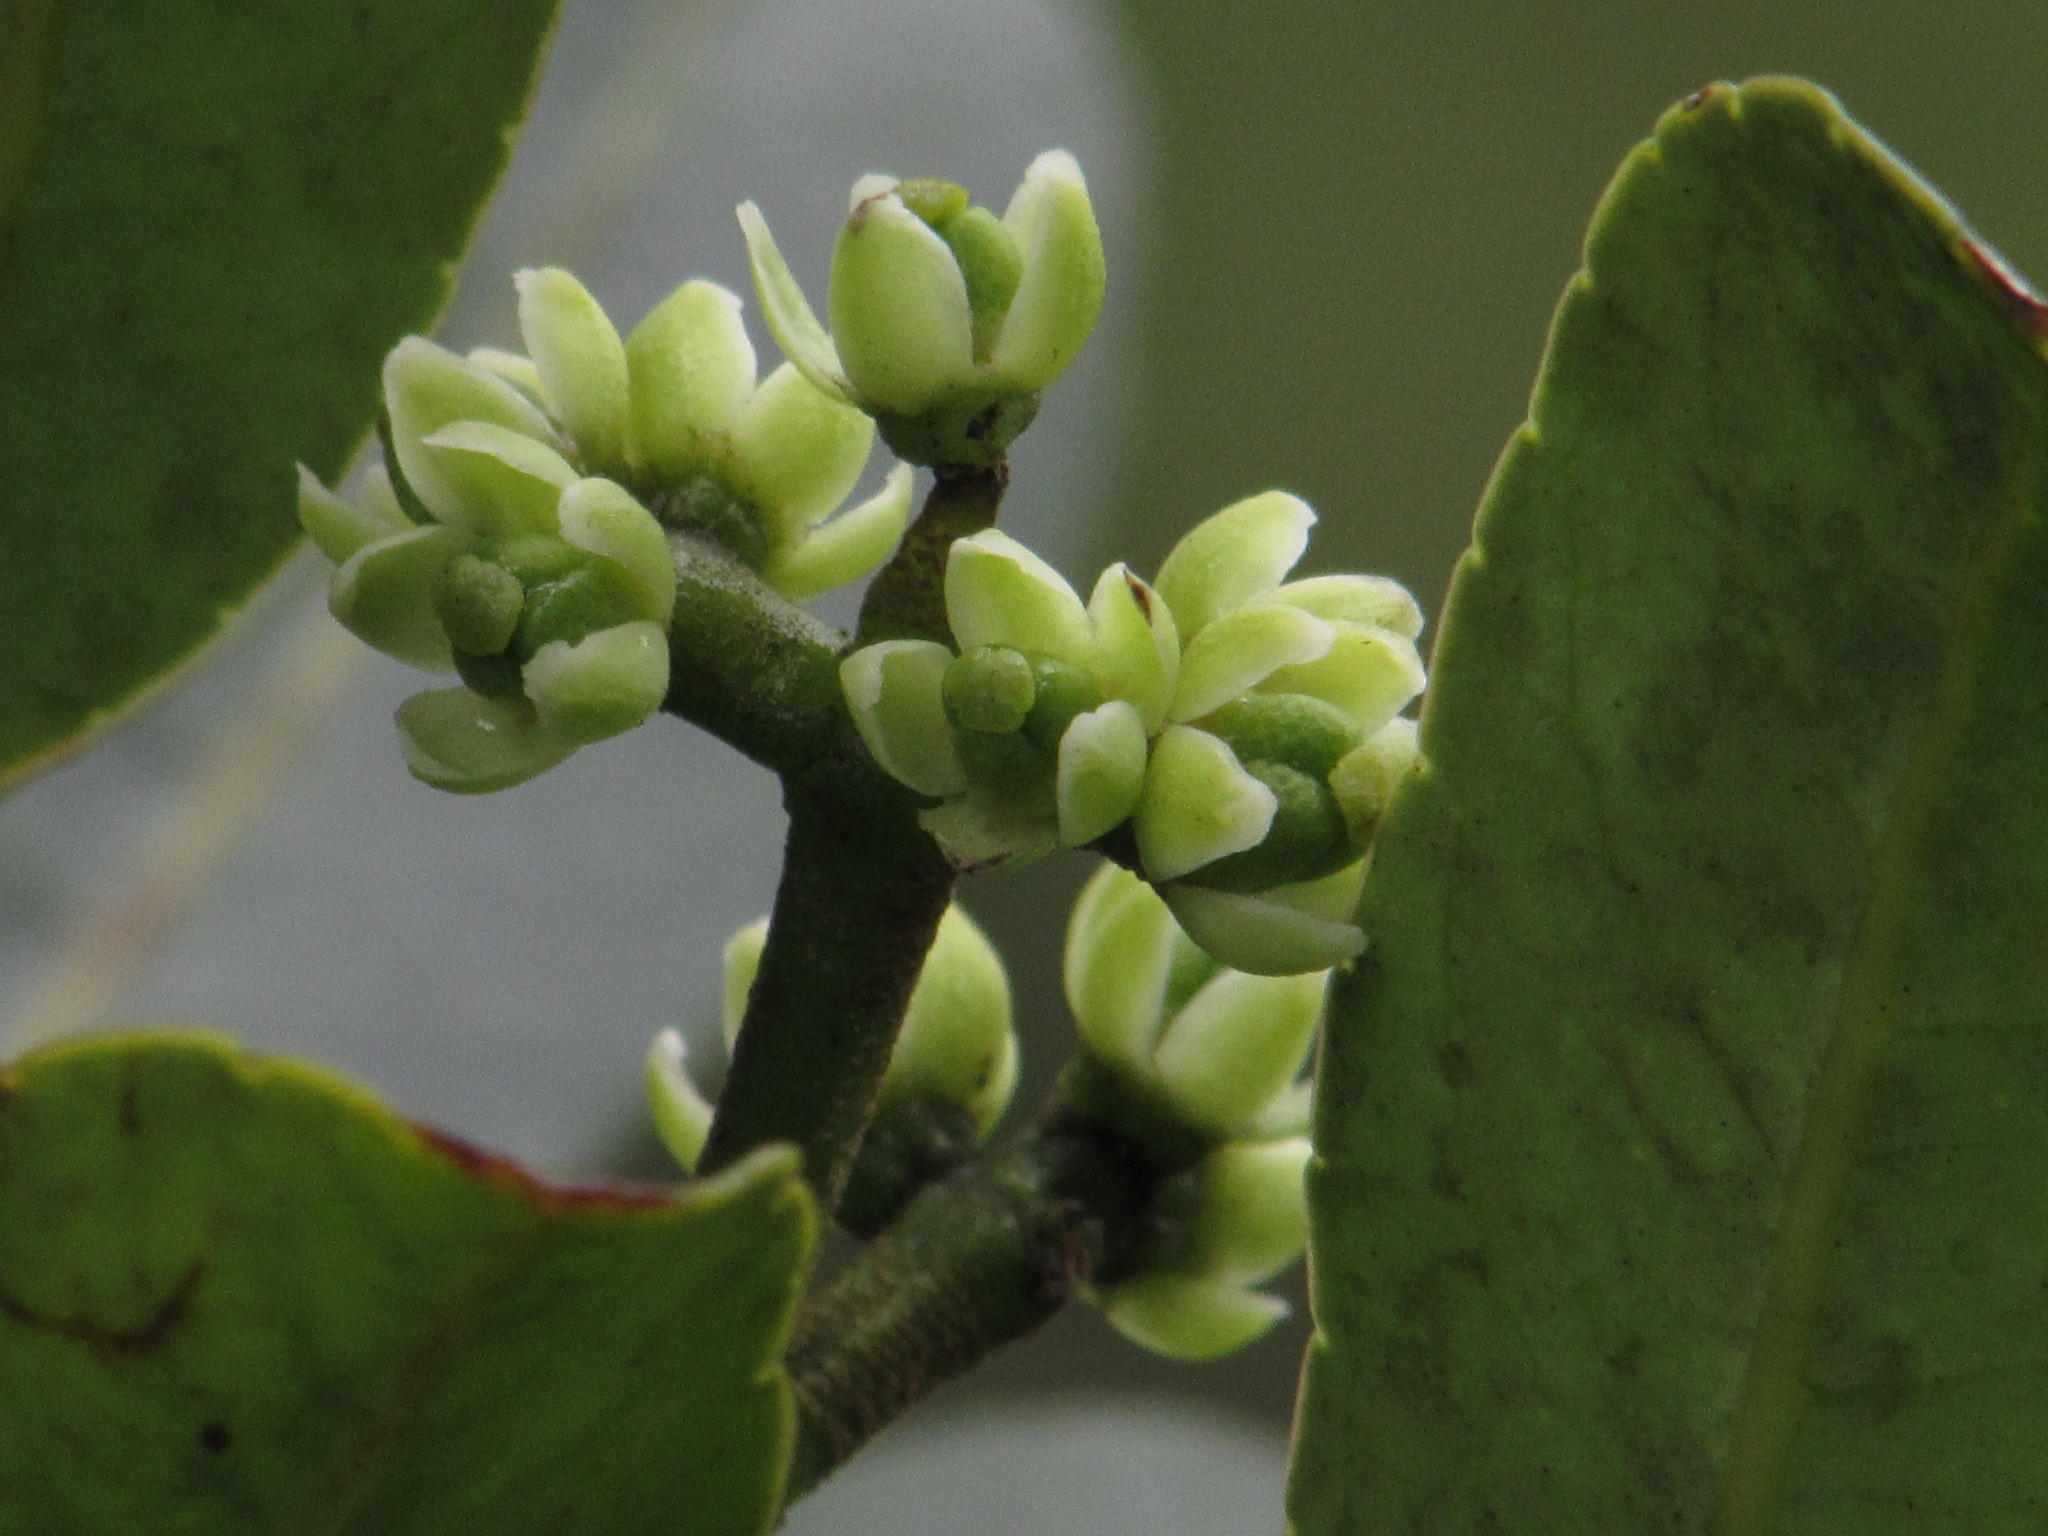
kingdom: Plantae
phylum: Tracheophyta
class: Magnoliopsida
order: Sapindales
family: Rutaceae
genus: Zanthoxylum
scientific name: Zanthoxylum quinduense
